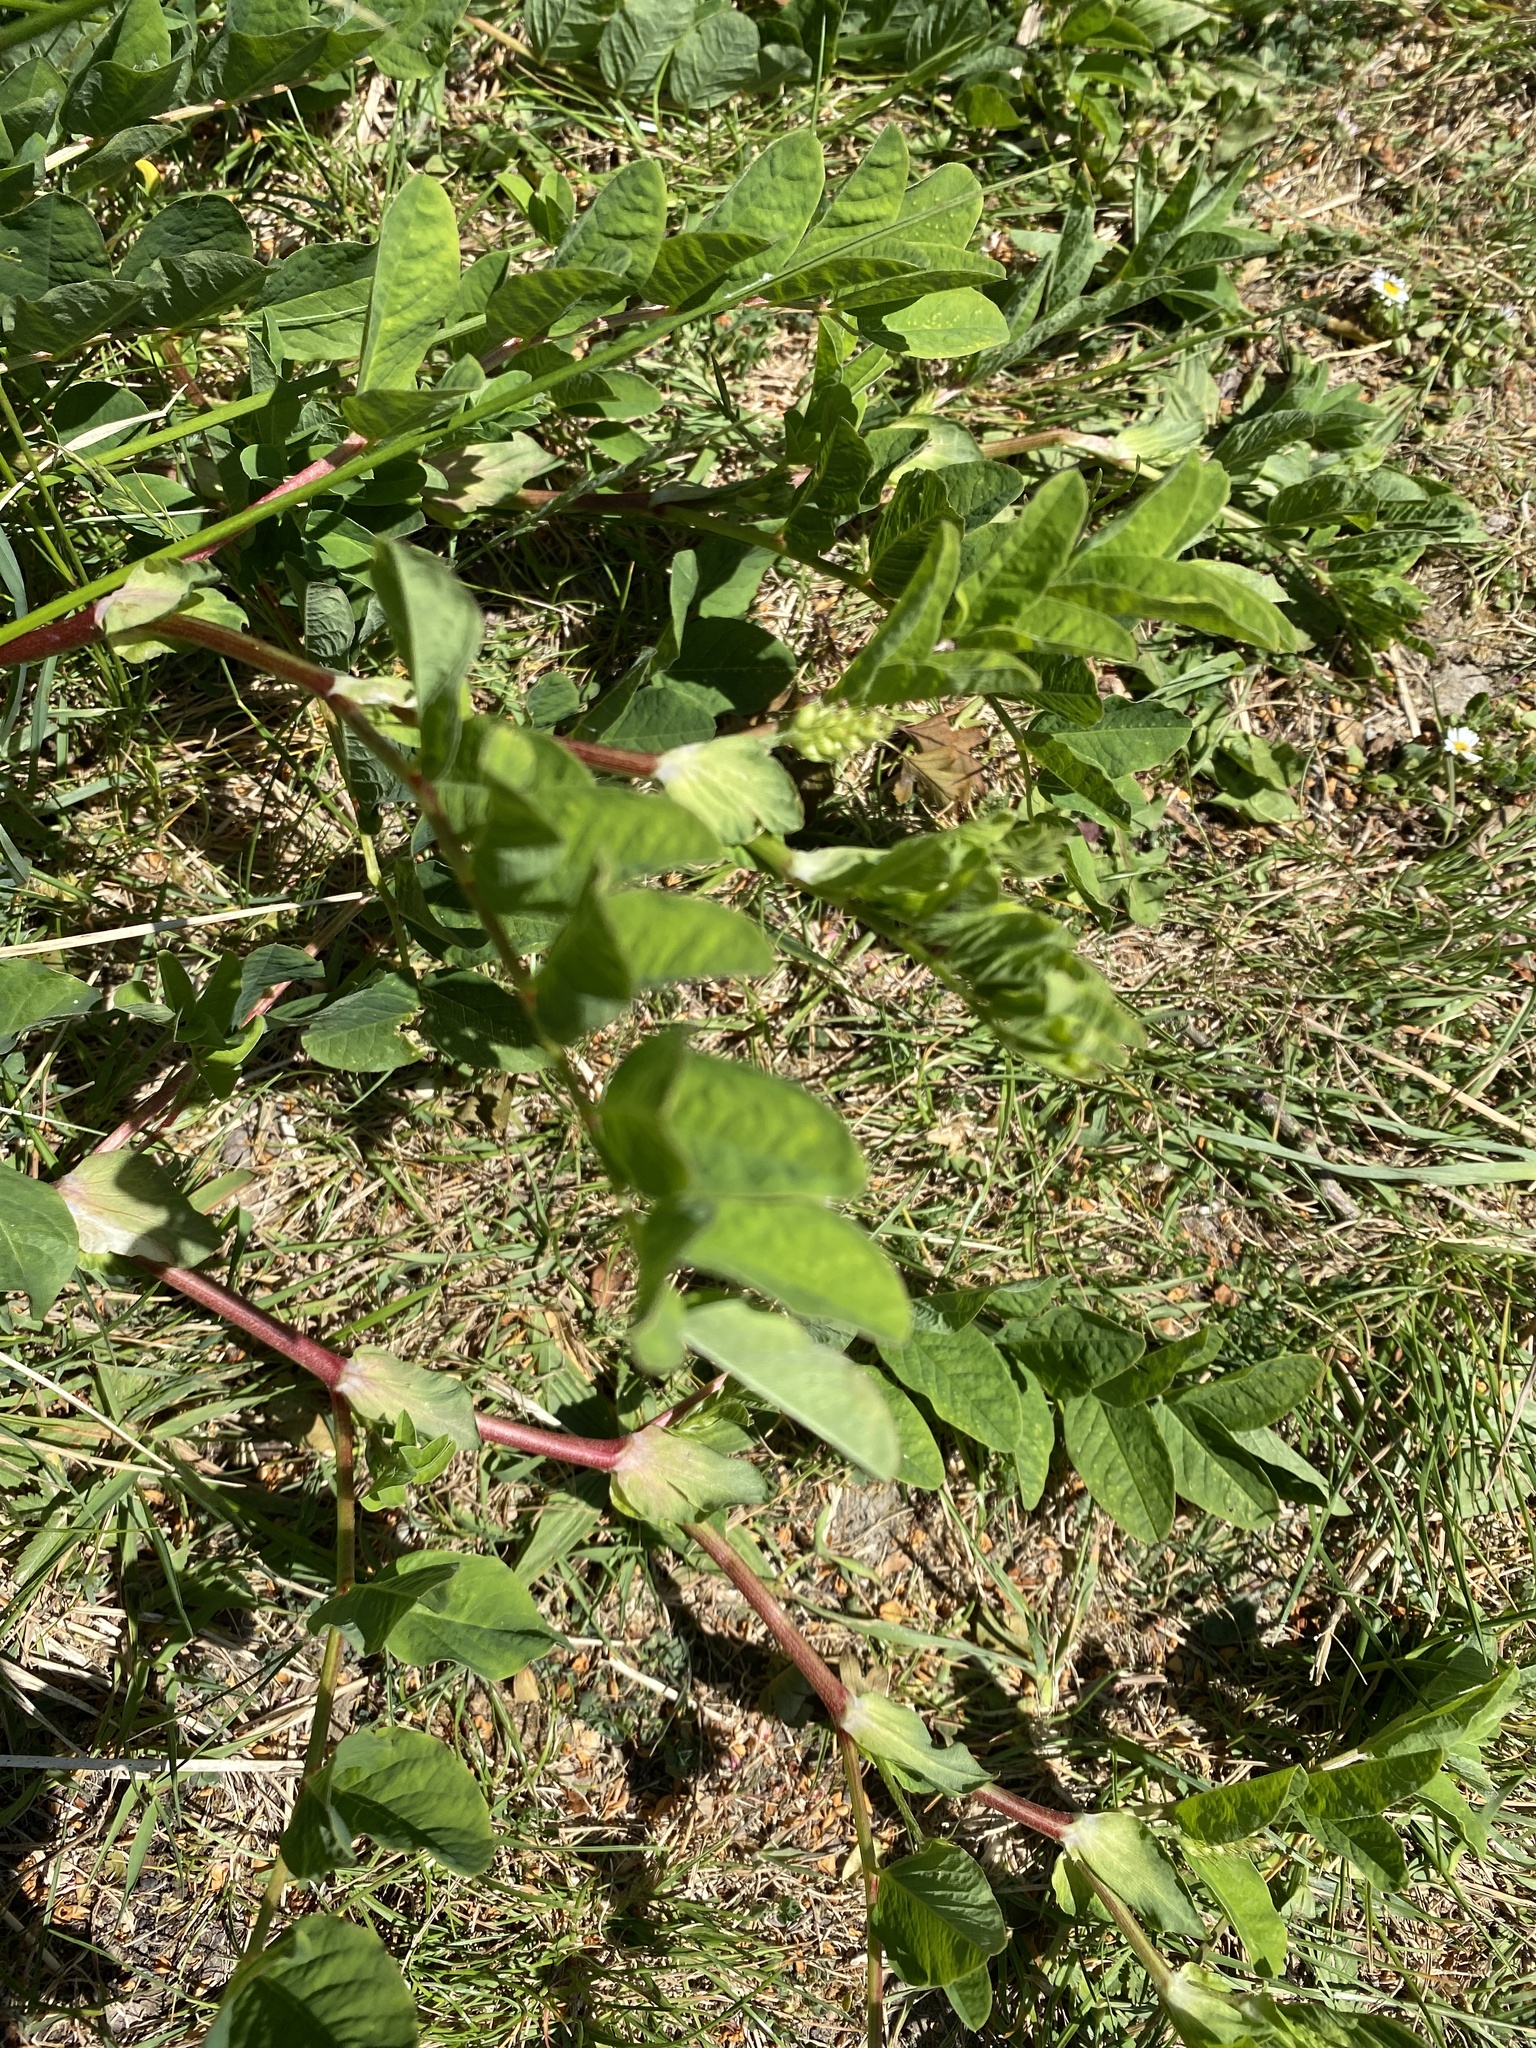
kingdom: Plantae
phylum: Tracheophyta
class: Magnoliopsida
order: Fabales
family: Fabaceae
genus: Astragalus
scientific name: Astragalus glycyphyllos
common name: Wild liquorice
